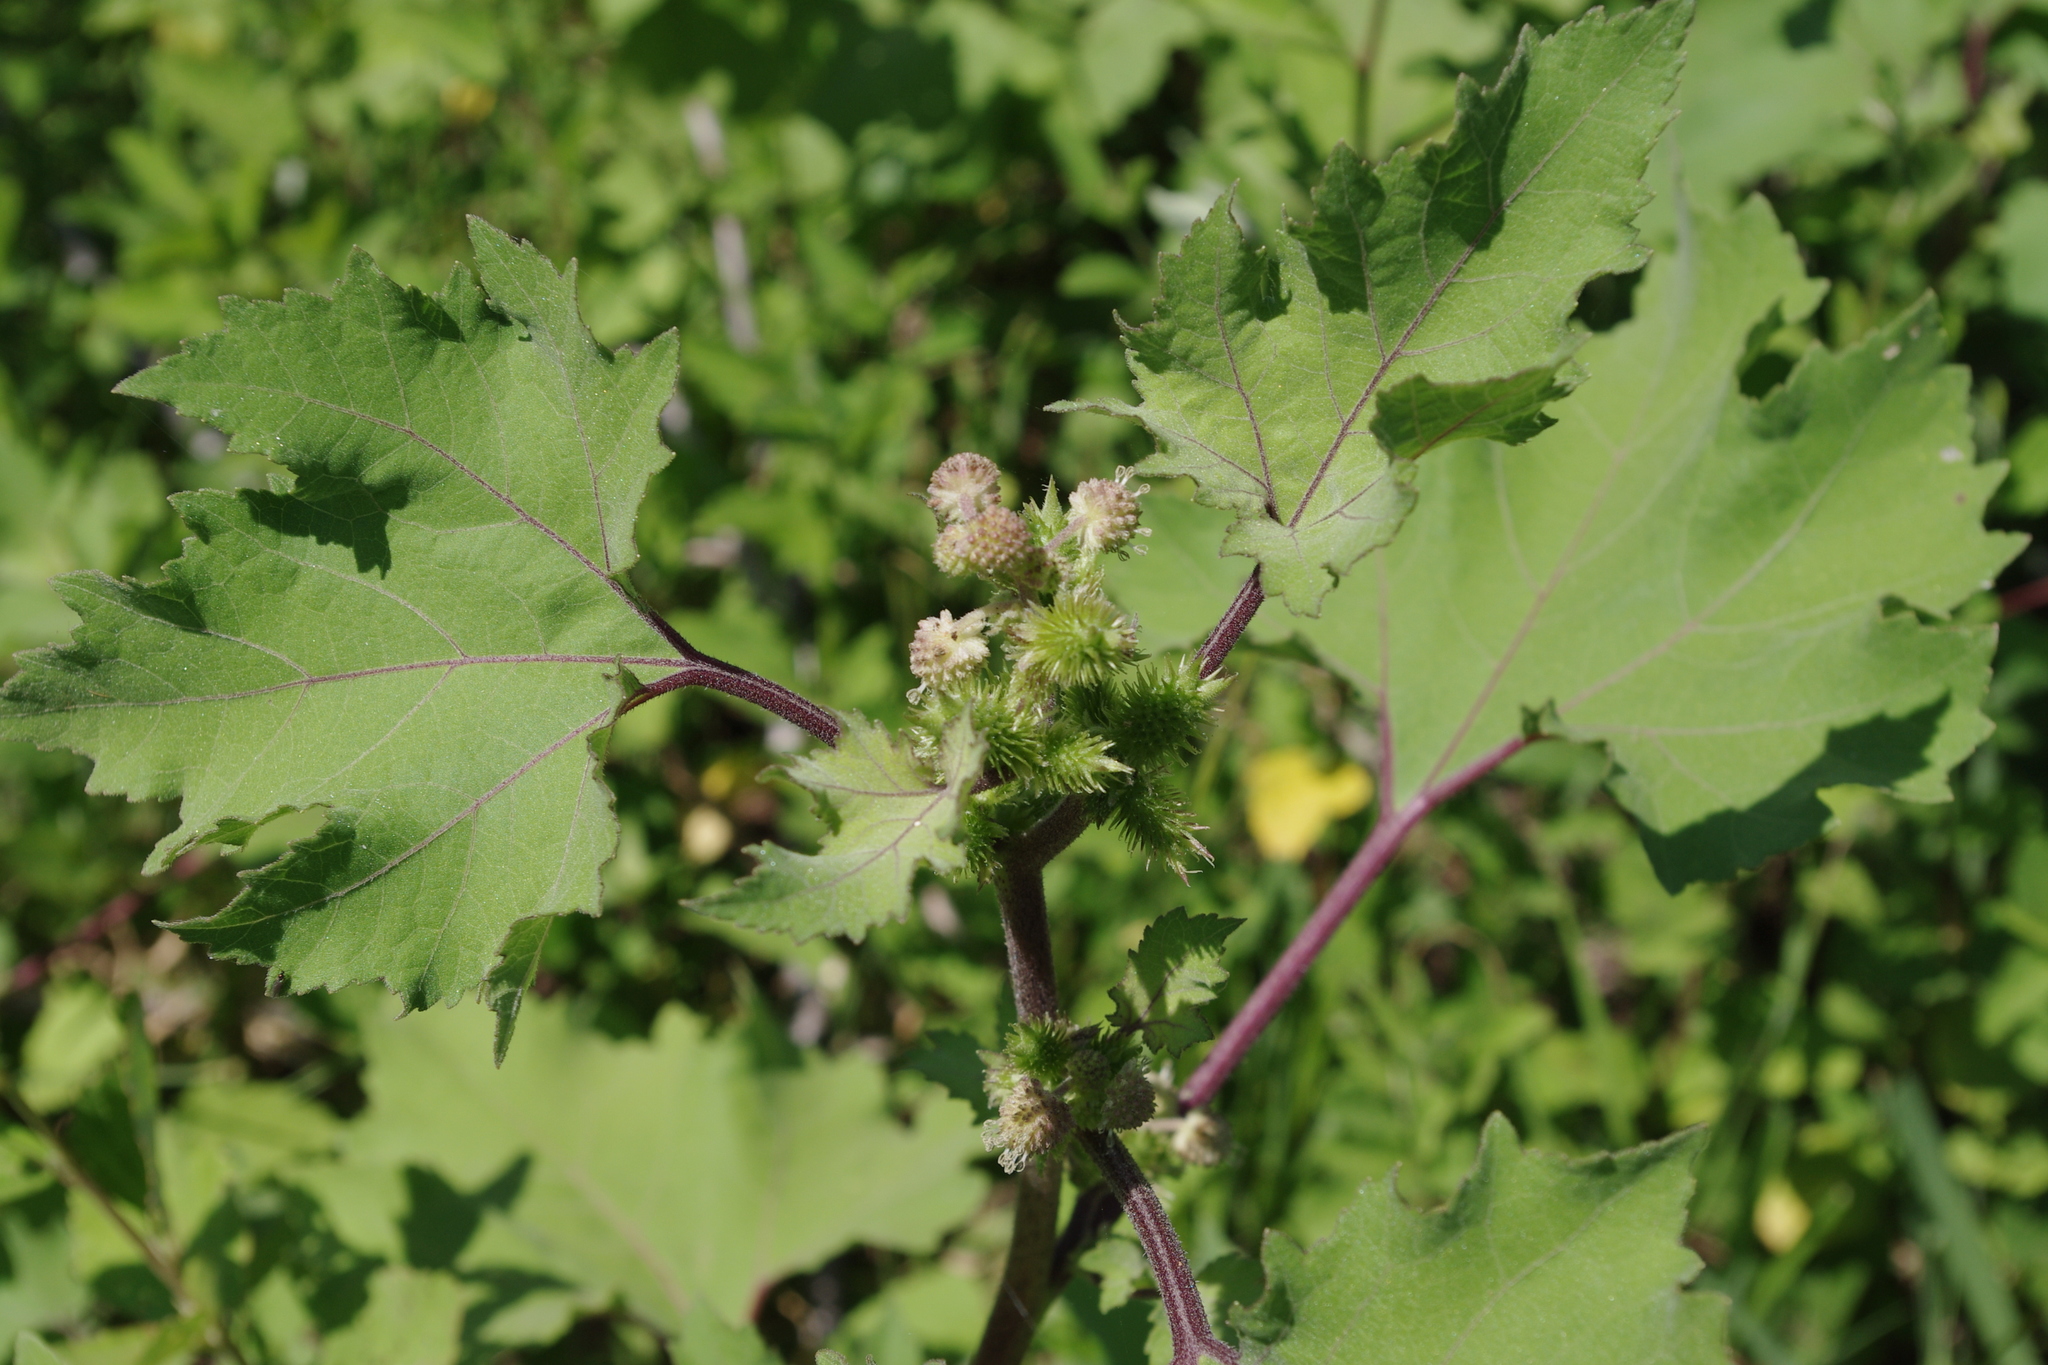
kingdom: Plantae
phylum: Tracheophyta
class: Magnoliopsida
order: Asterales
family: Asteraceae
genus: Xanthium
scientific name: Xanthium strumarium
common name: Rough cocklebur
